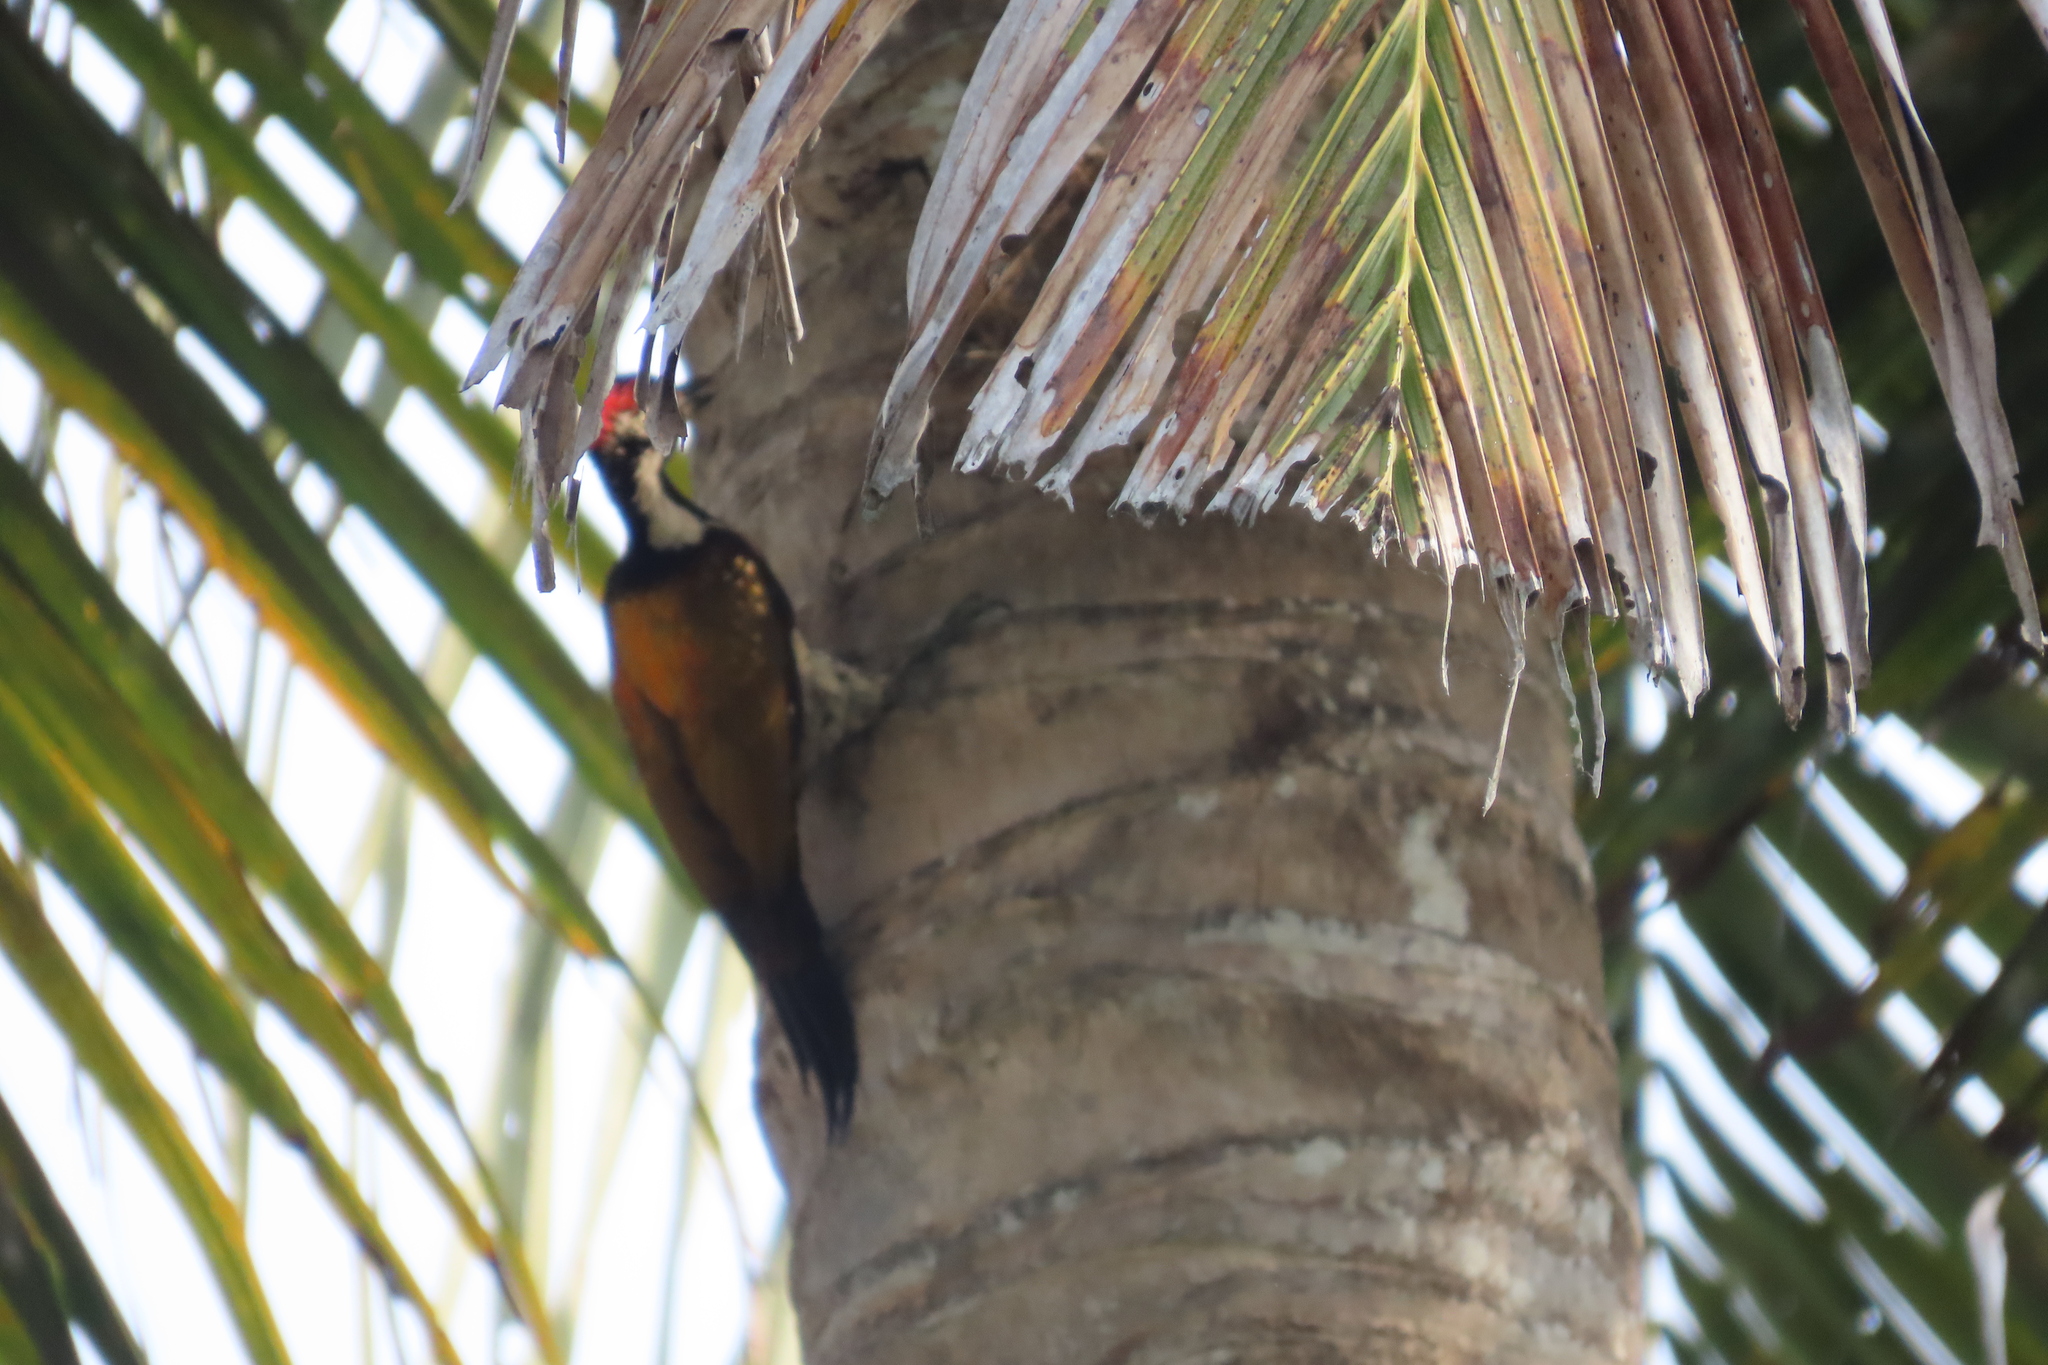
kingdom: Animalia
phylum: Chordata
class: Aves
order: Piciformes
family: Picidae
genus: Dinopium
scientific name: Dinopium benghalense
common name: Black-rumped flameback
